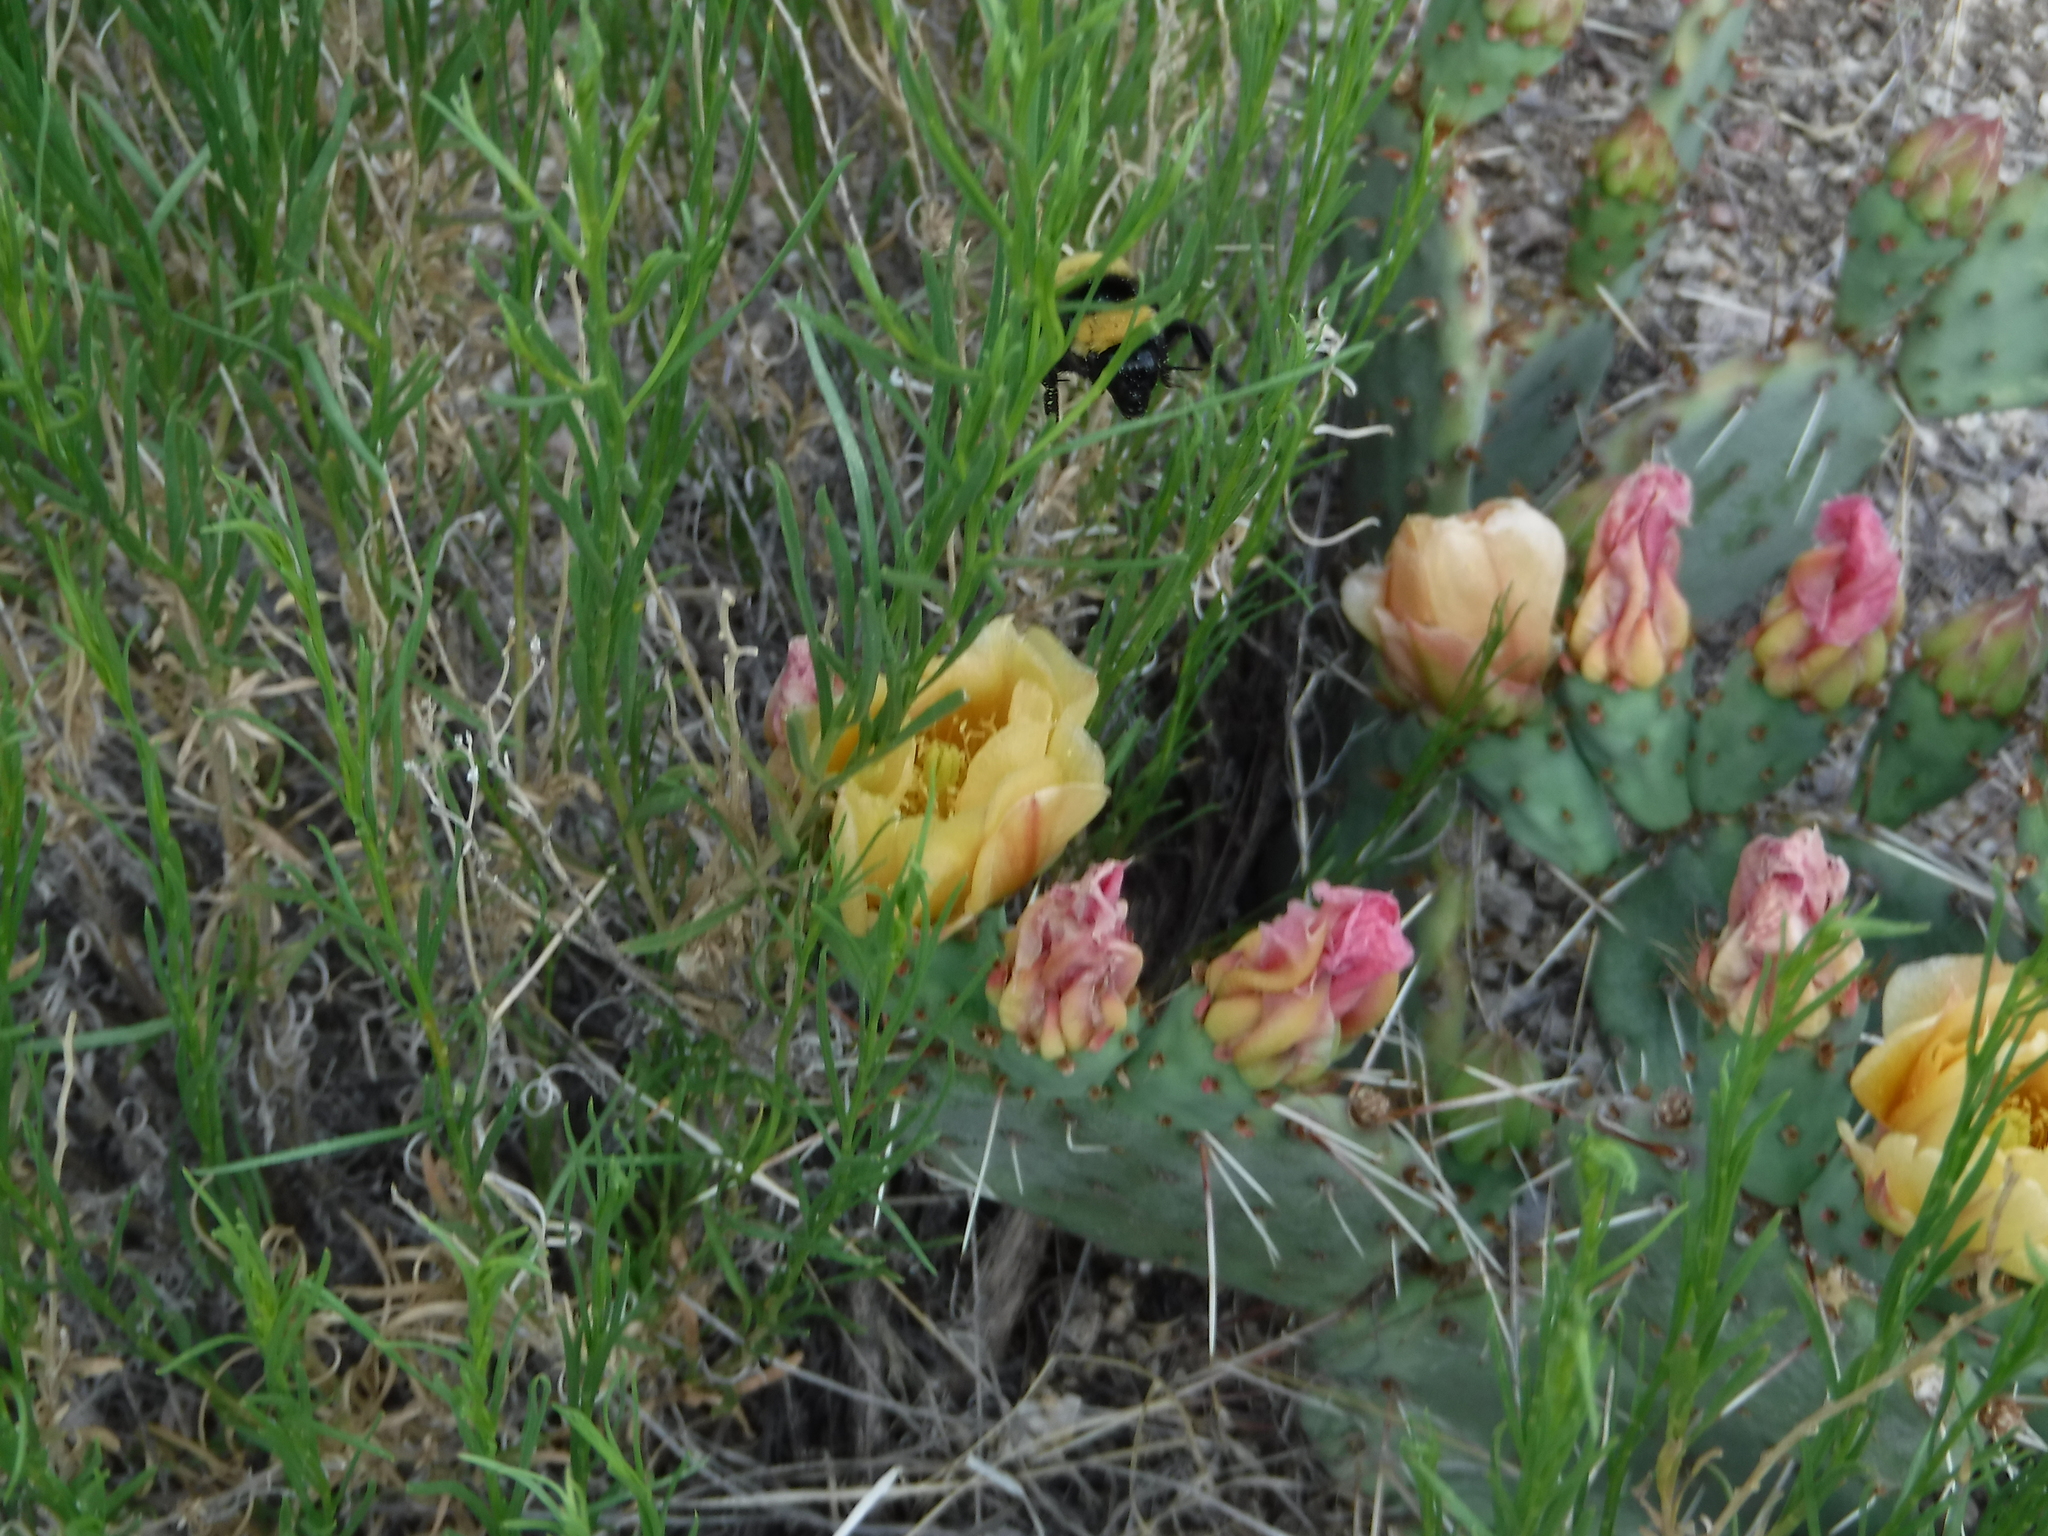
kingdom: Animalia
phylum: Arthropoda
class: Insecta
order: Hymenoptera
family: Apidae
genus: Bombus
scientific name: Bombus pensylvanicus
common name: Bumble bee
